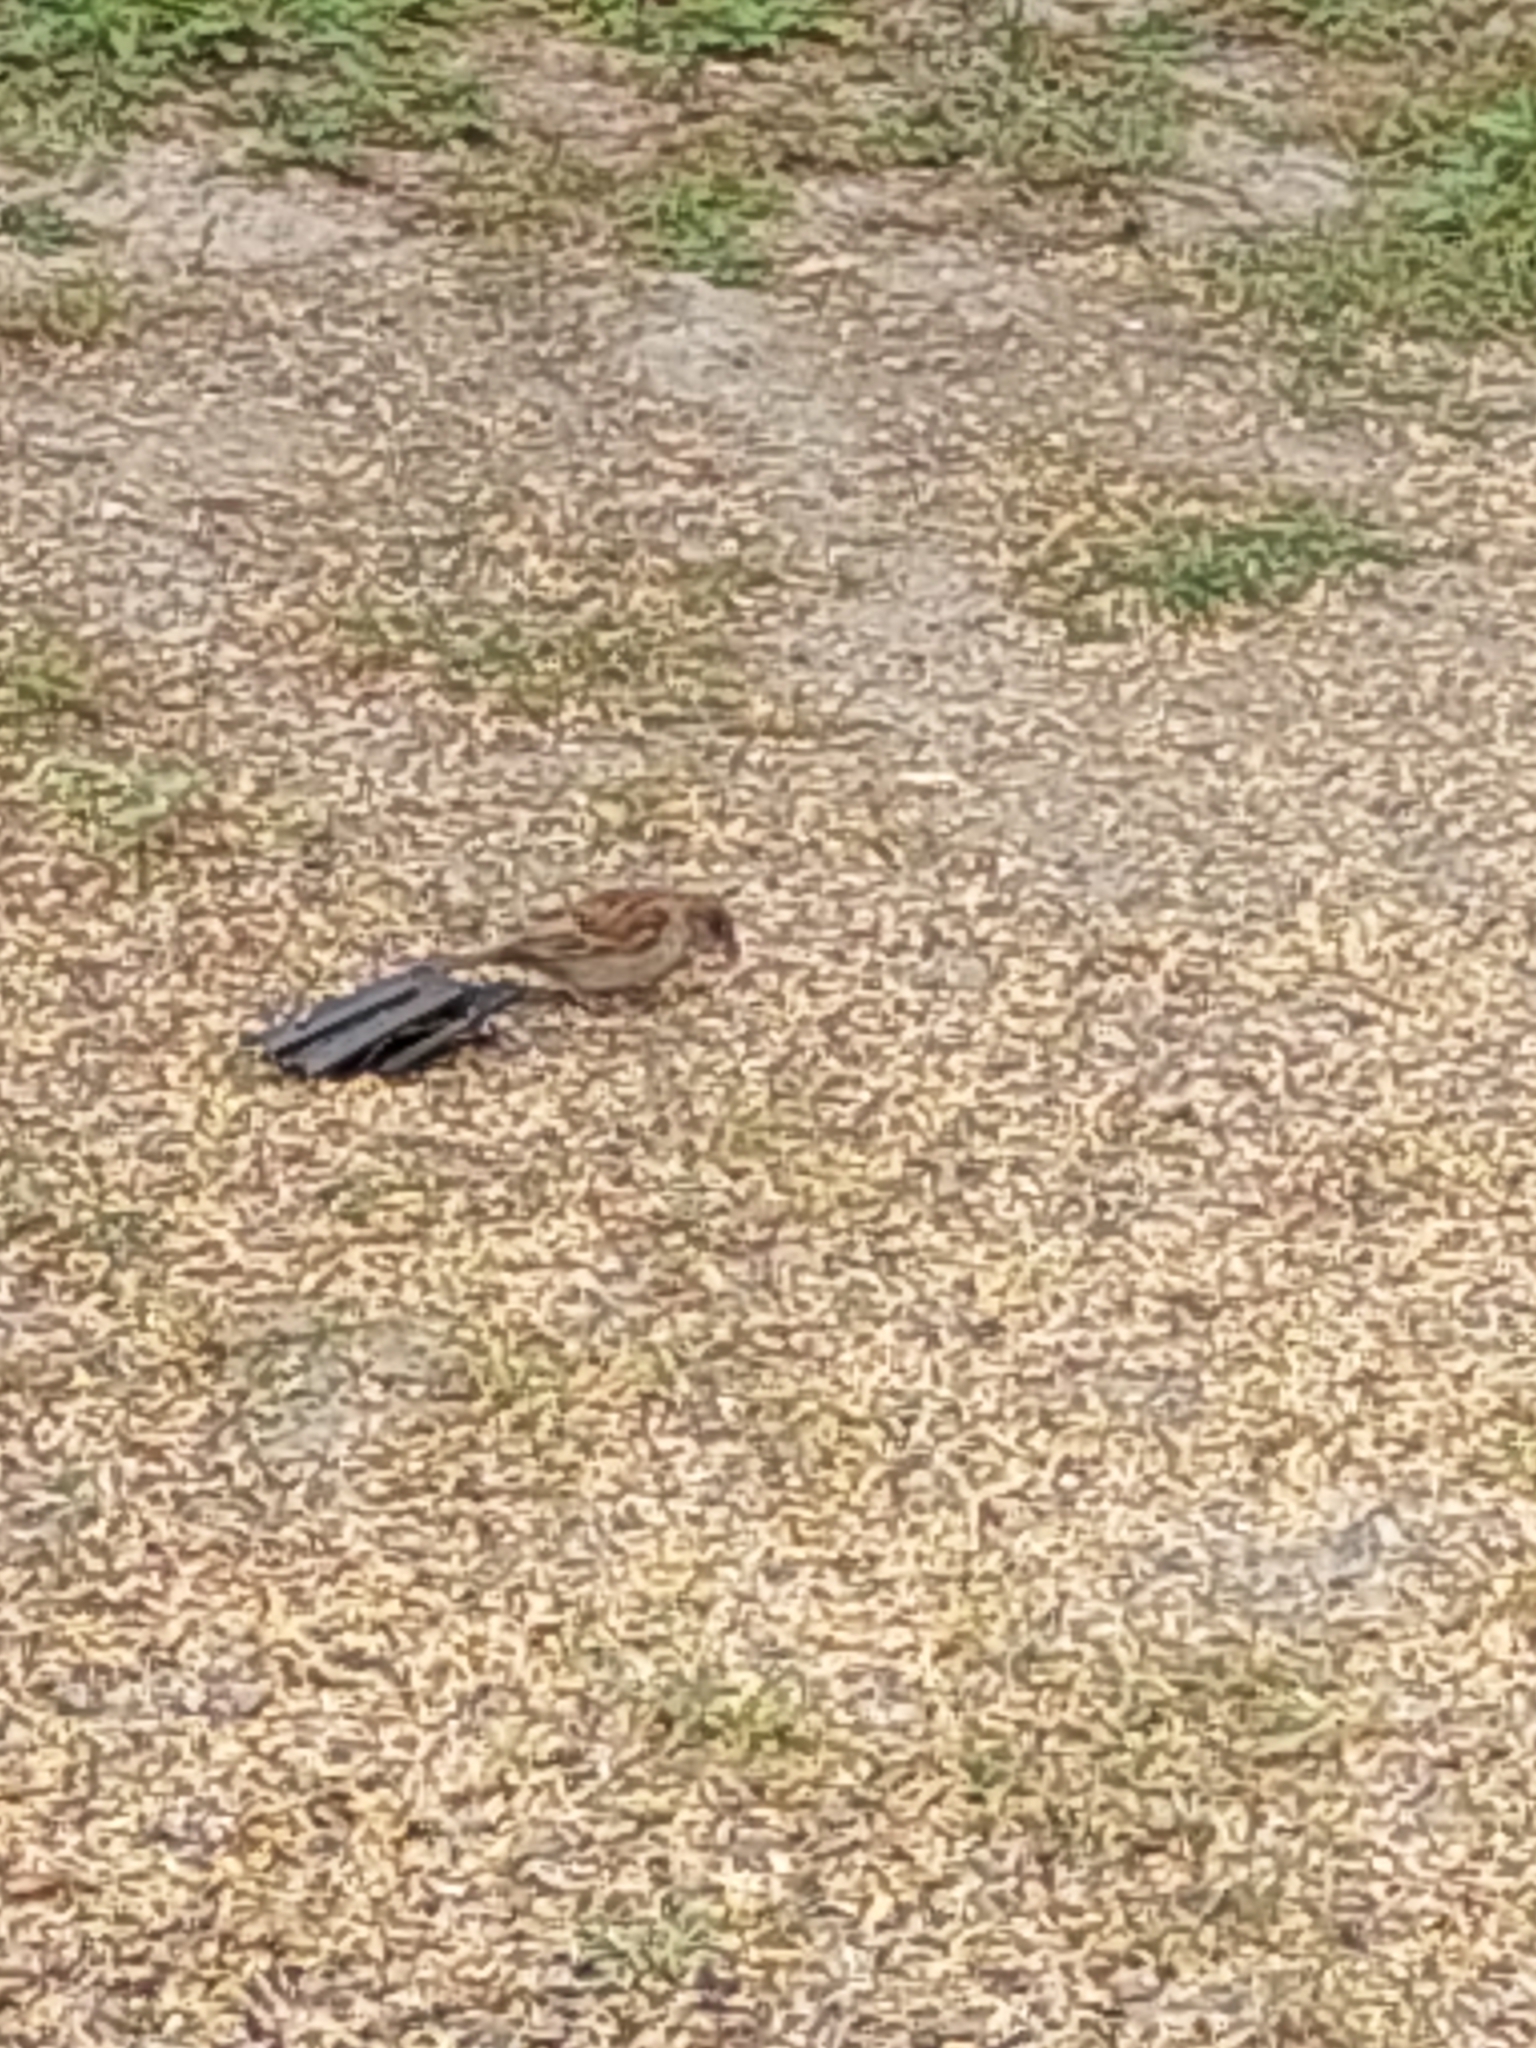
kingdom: Animalia
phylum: Chordata
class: Aves
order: Passeriformes
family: Passeridae
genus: Passer
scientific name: Passer domesticus
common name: House sparrow
